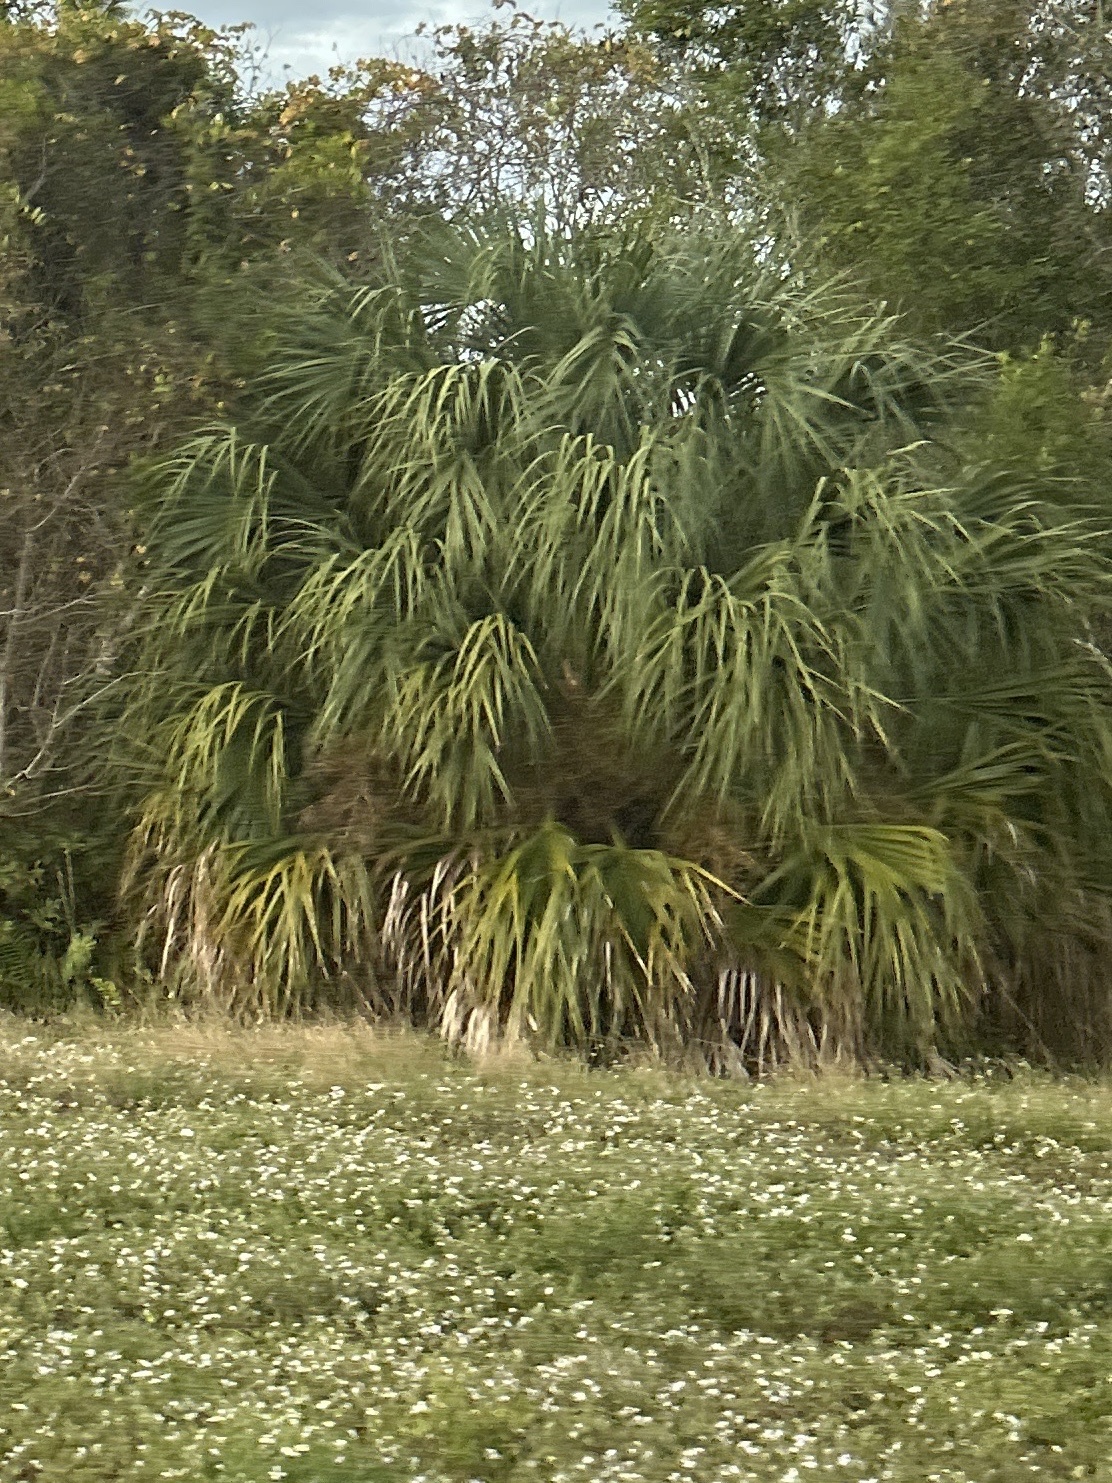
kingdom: Plantae
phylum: Tracheophyta
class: Liliopsida
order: Arecales
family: Arecaceae
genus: Sabal
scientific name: Sabal palmetto
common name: Blue palmetto
